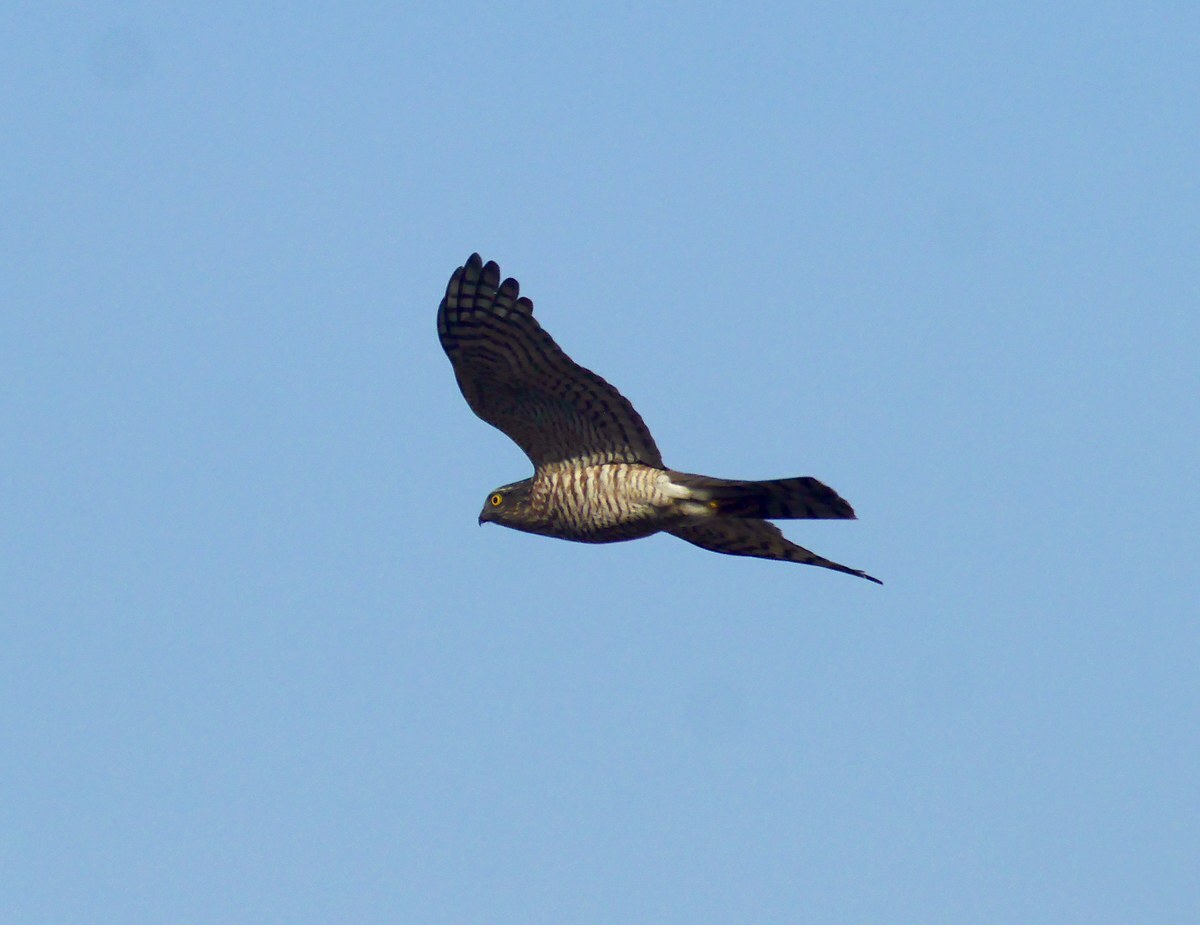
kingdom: Animalia
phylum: Chordata
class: Aves
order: Accipitriformes
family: Accipitridae
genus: Accipiter
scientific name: Accipiter nisus
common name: Eurasian sparrowhawk
